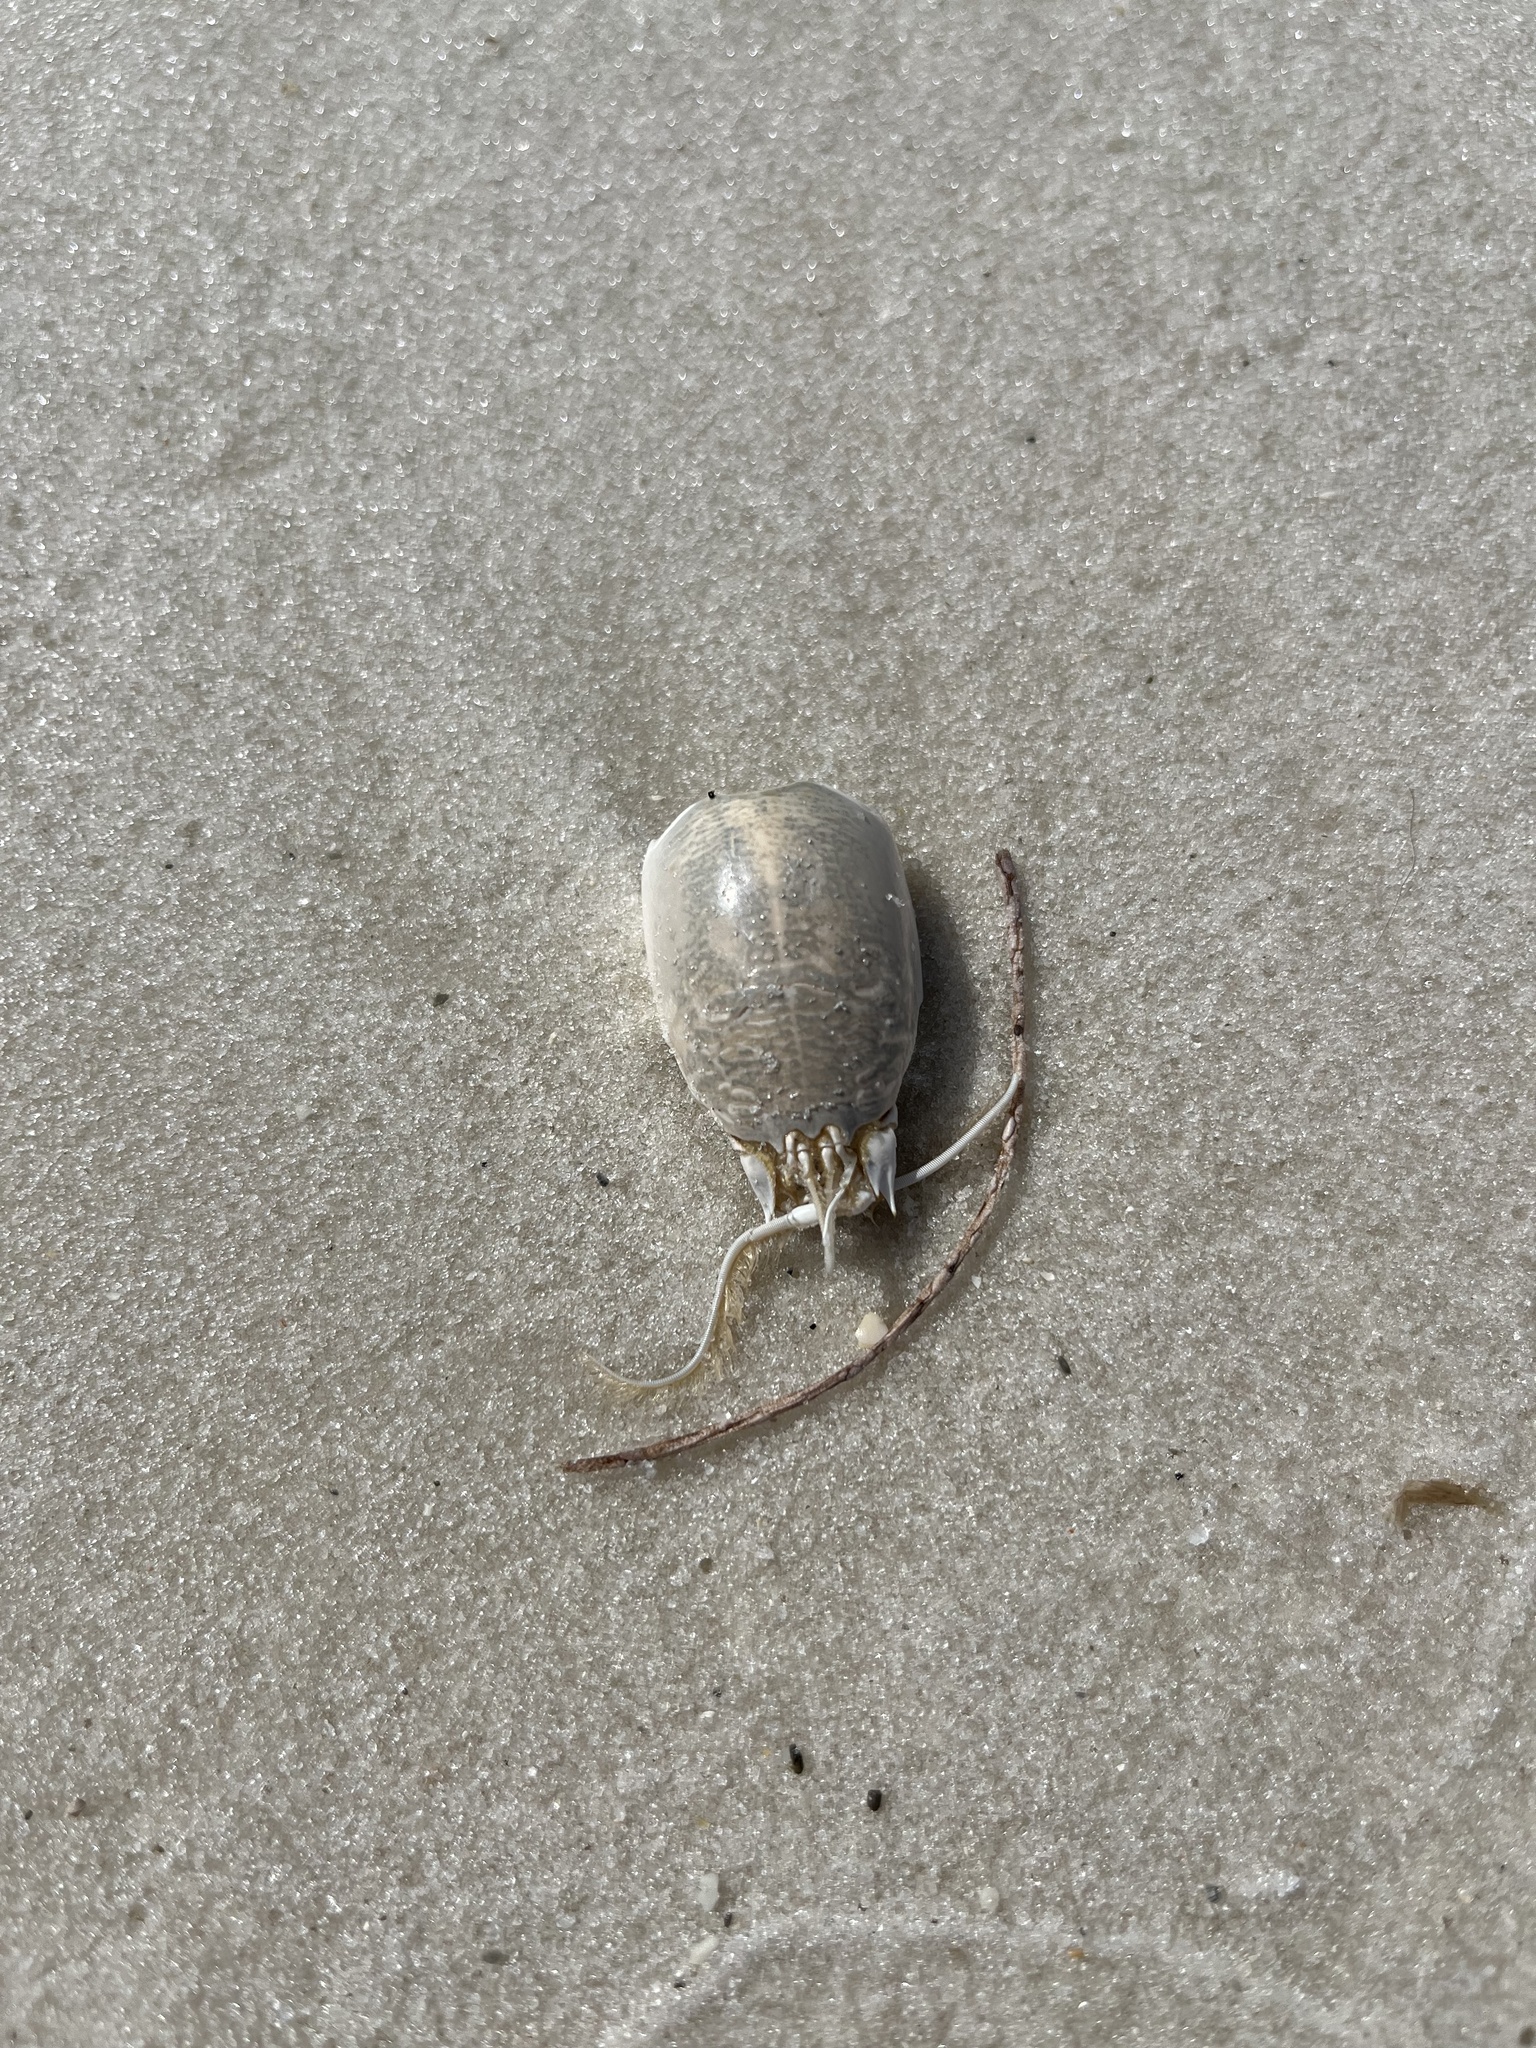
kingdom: Animalia
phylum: Arthropoda
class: Malacostraca
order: Decapoda
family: Hippidae
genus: Emerita
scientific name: Emerita talpoida
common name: Atlantic sand crab
